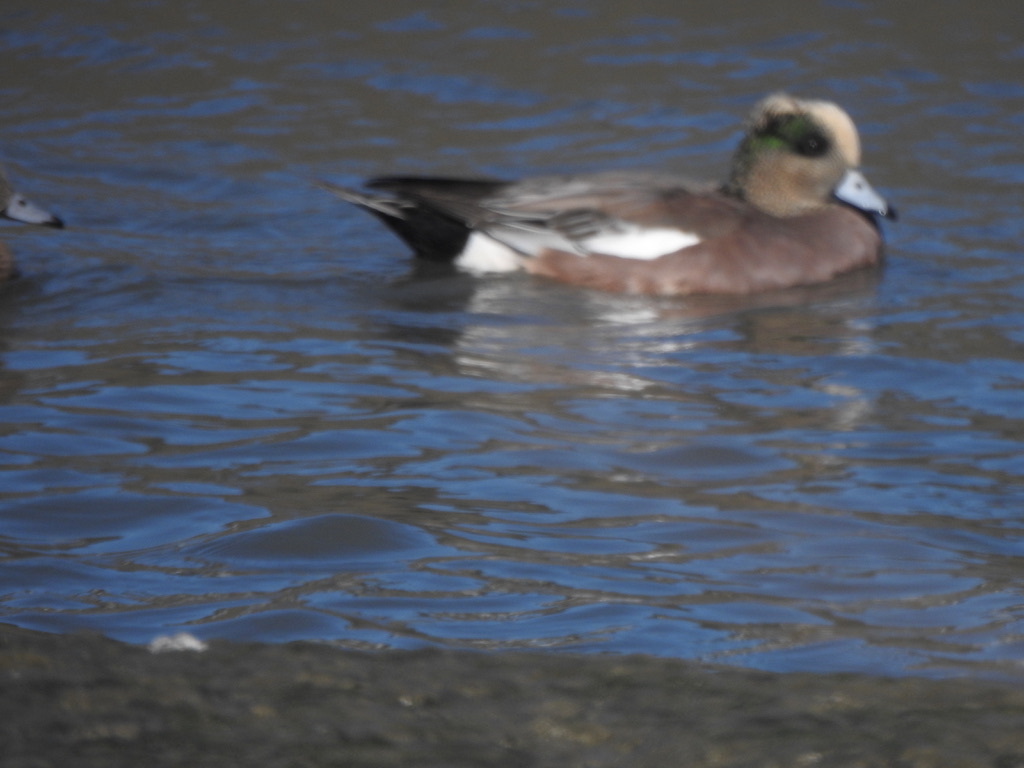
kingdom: Animalia
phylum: Chordata
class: Aves
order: Anseriformes
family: Anatidae
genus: Mareca
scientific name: Mareca americana
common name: American wigeon
